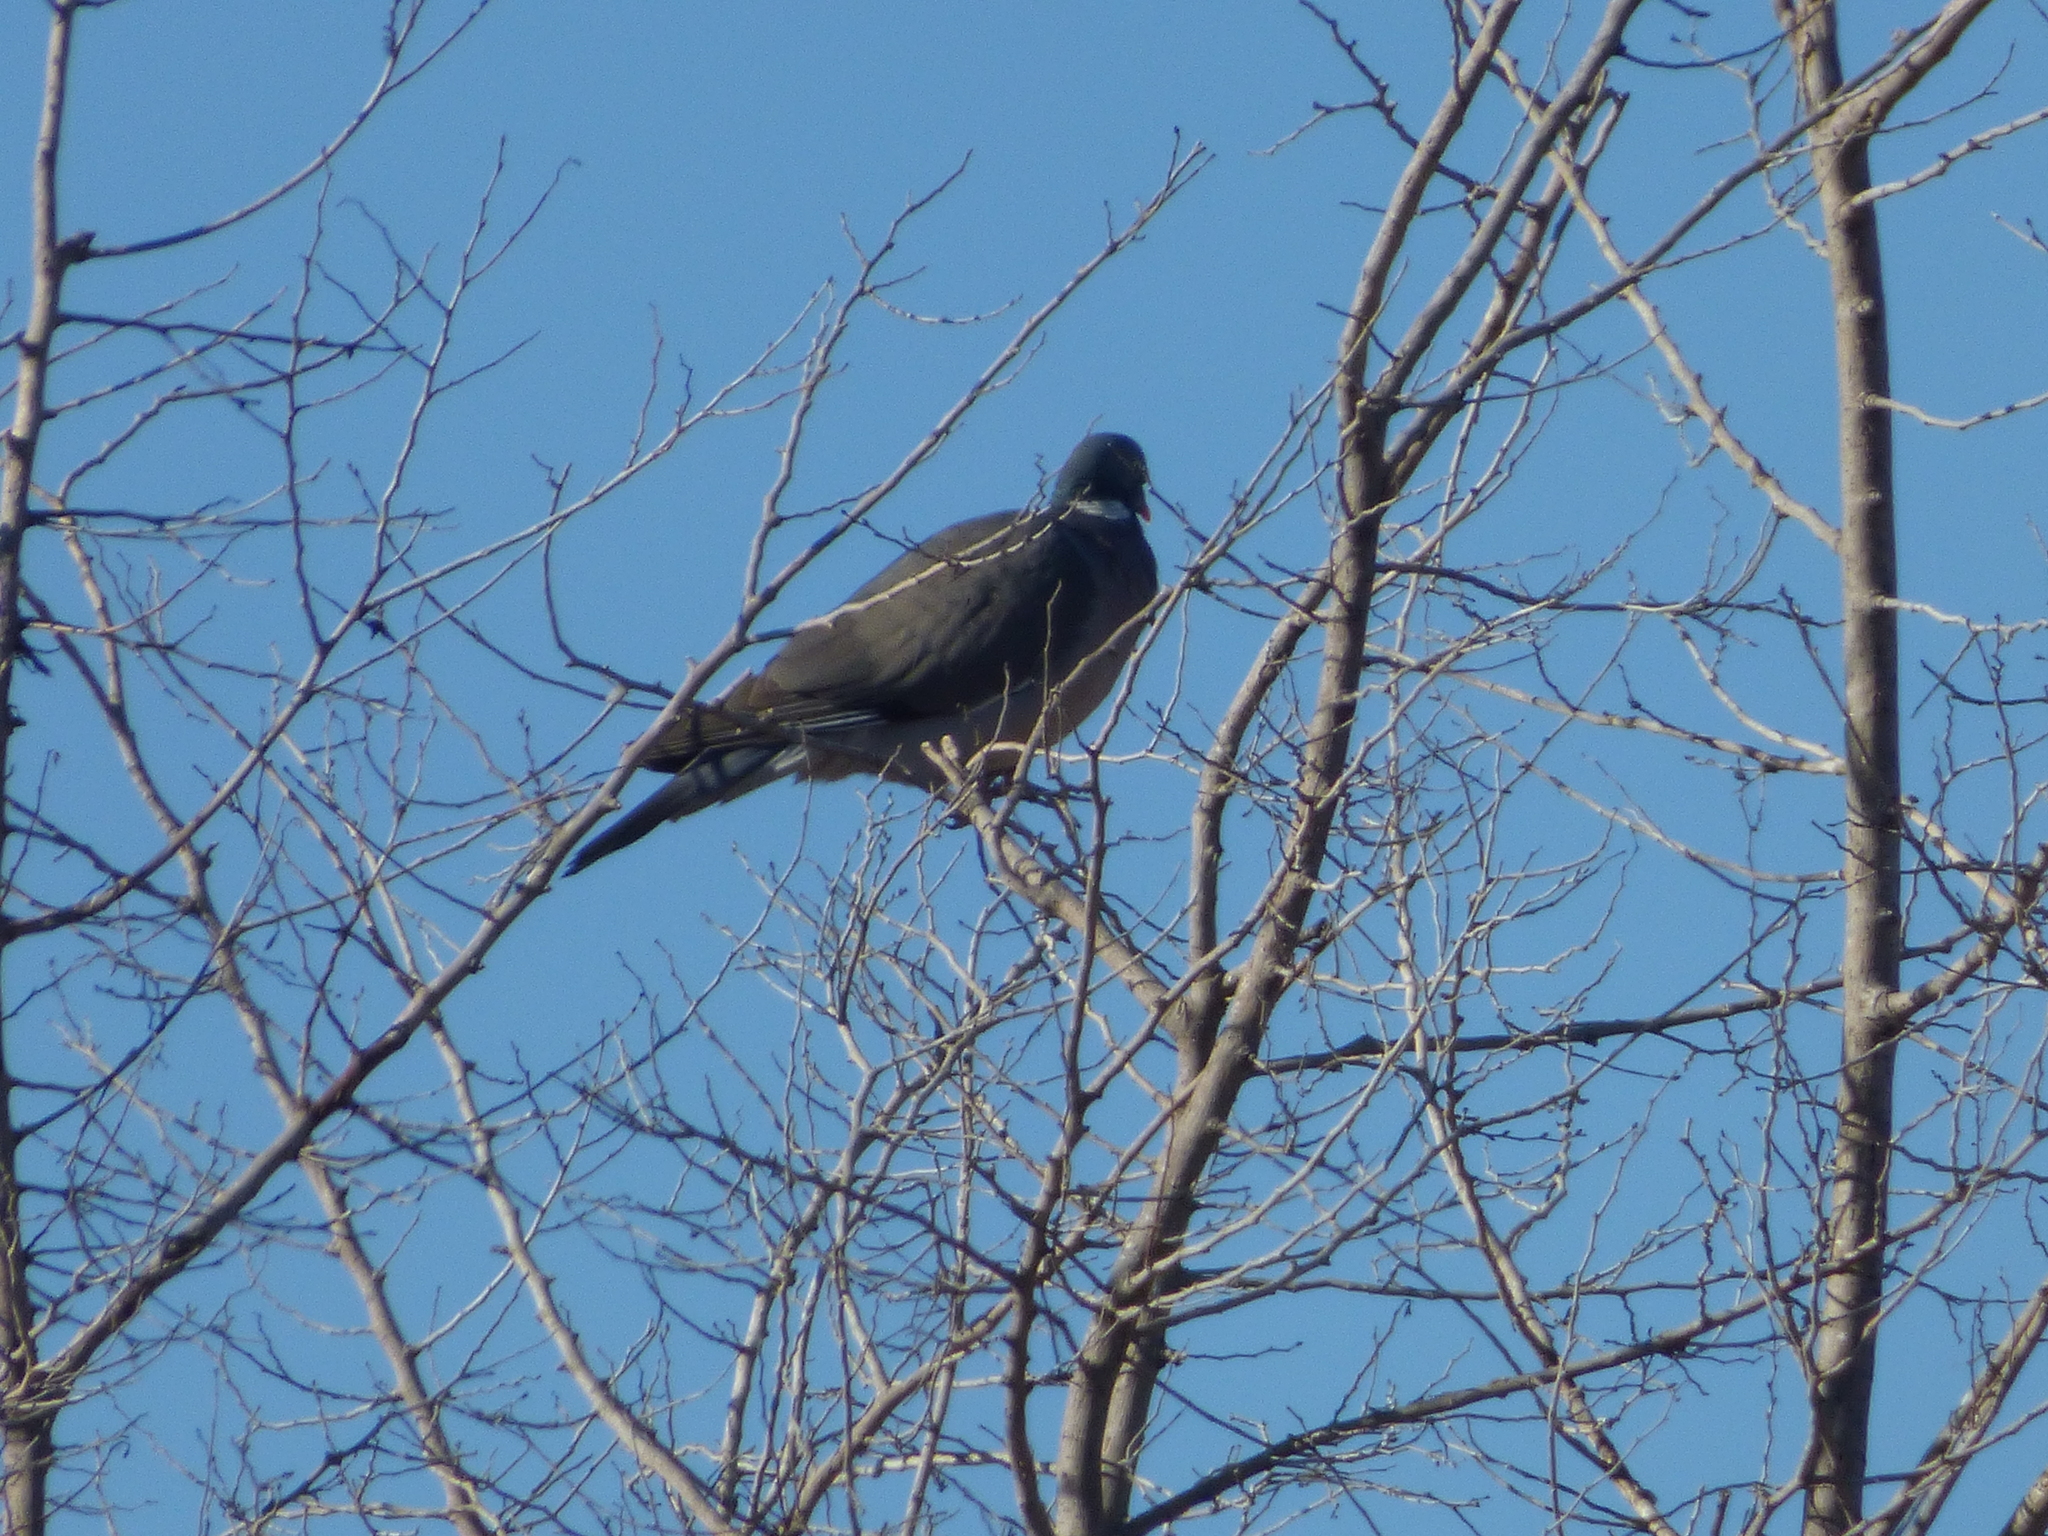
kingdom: Animalia
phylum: Chordata
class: Aves
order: Columbiformes
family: Columbidae
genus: Columba
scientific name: Columba palumbus
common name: Common wood pigeon
